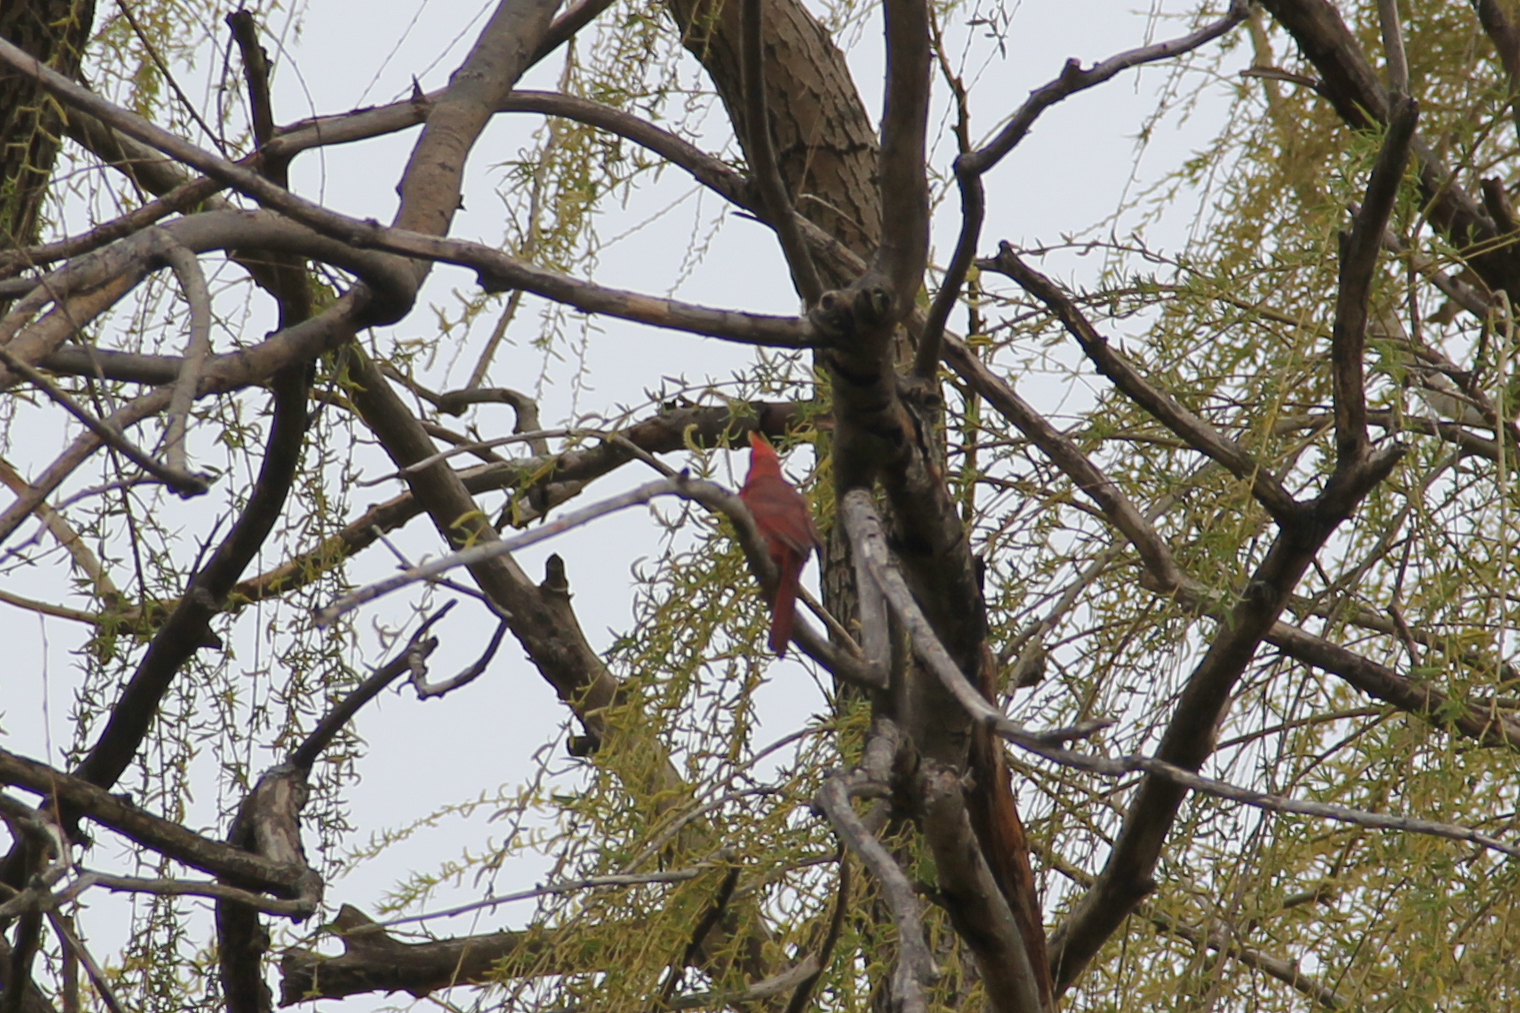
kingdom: Animalia
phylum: Chordata
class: Aves
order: Passeriformes
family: Cardinalidae
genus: Cardinalis
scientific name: Cardinalis cardinalis
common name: Northern cardinal
